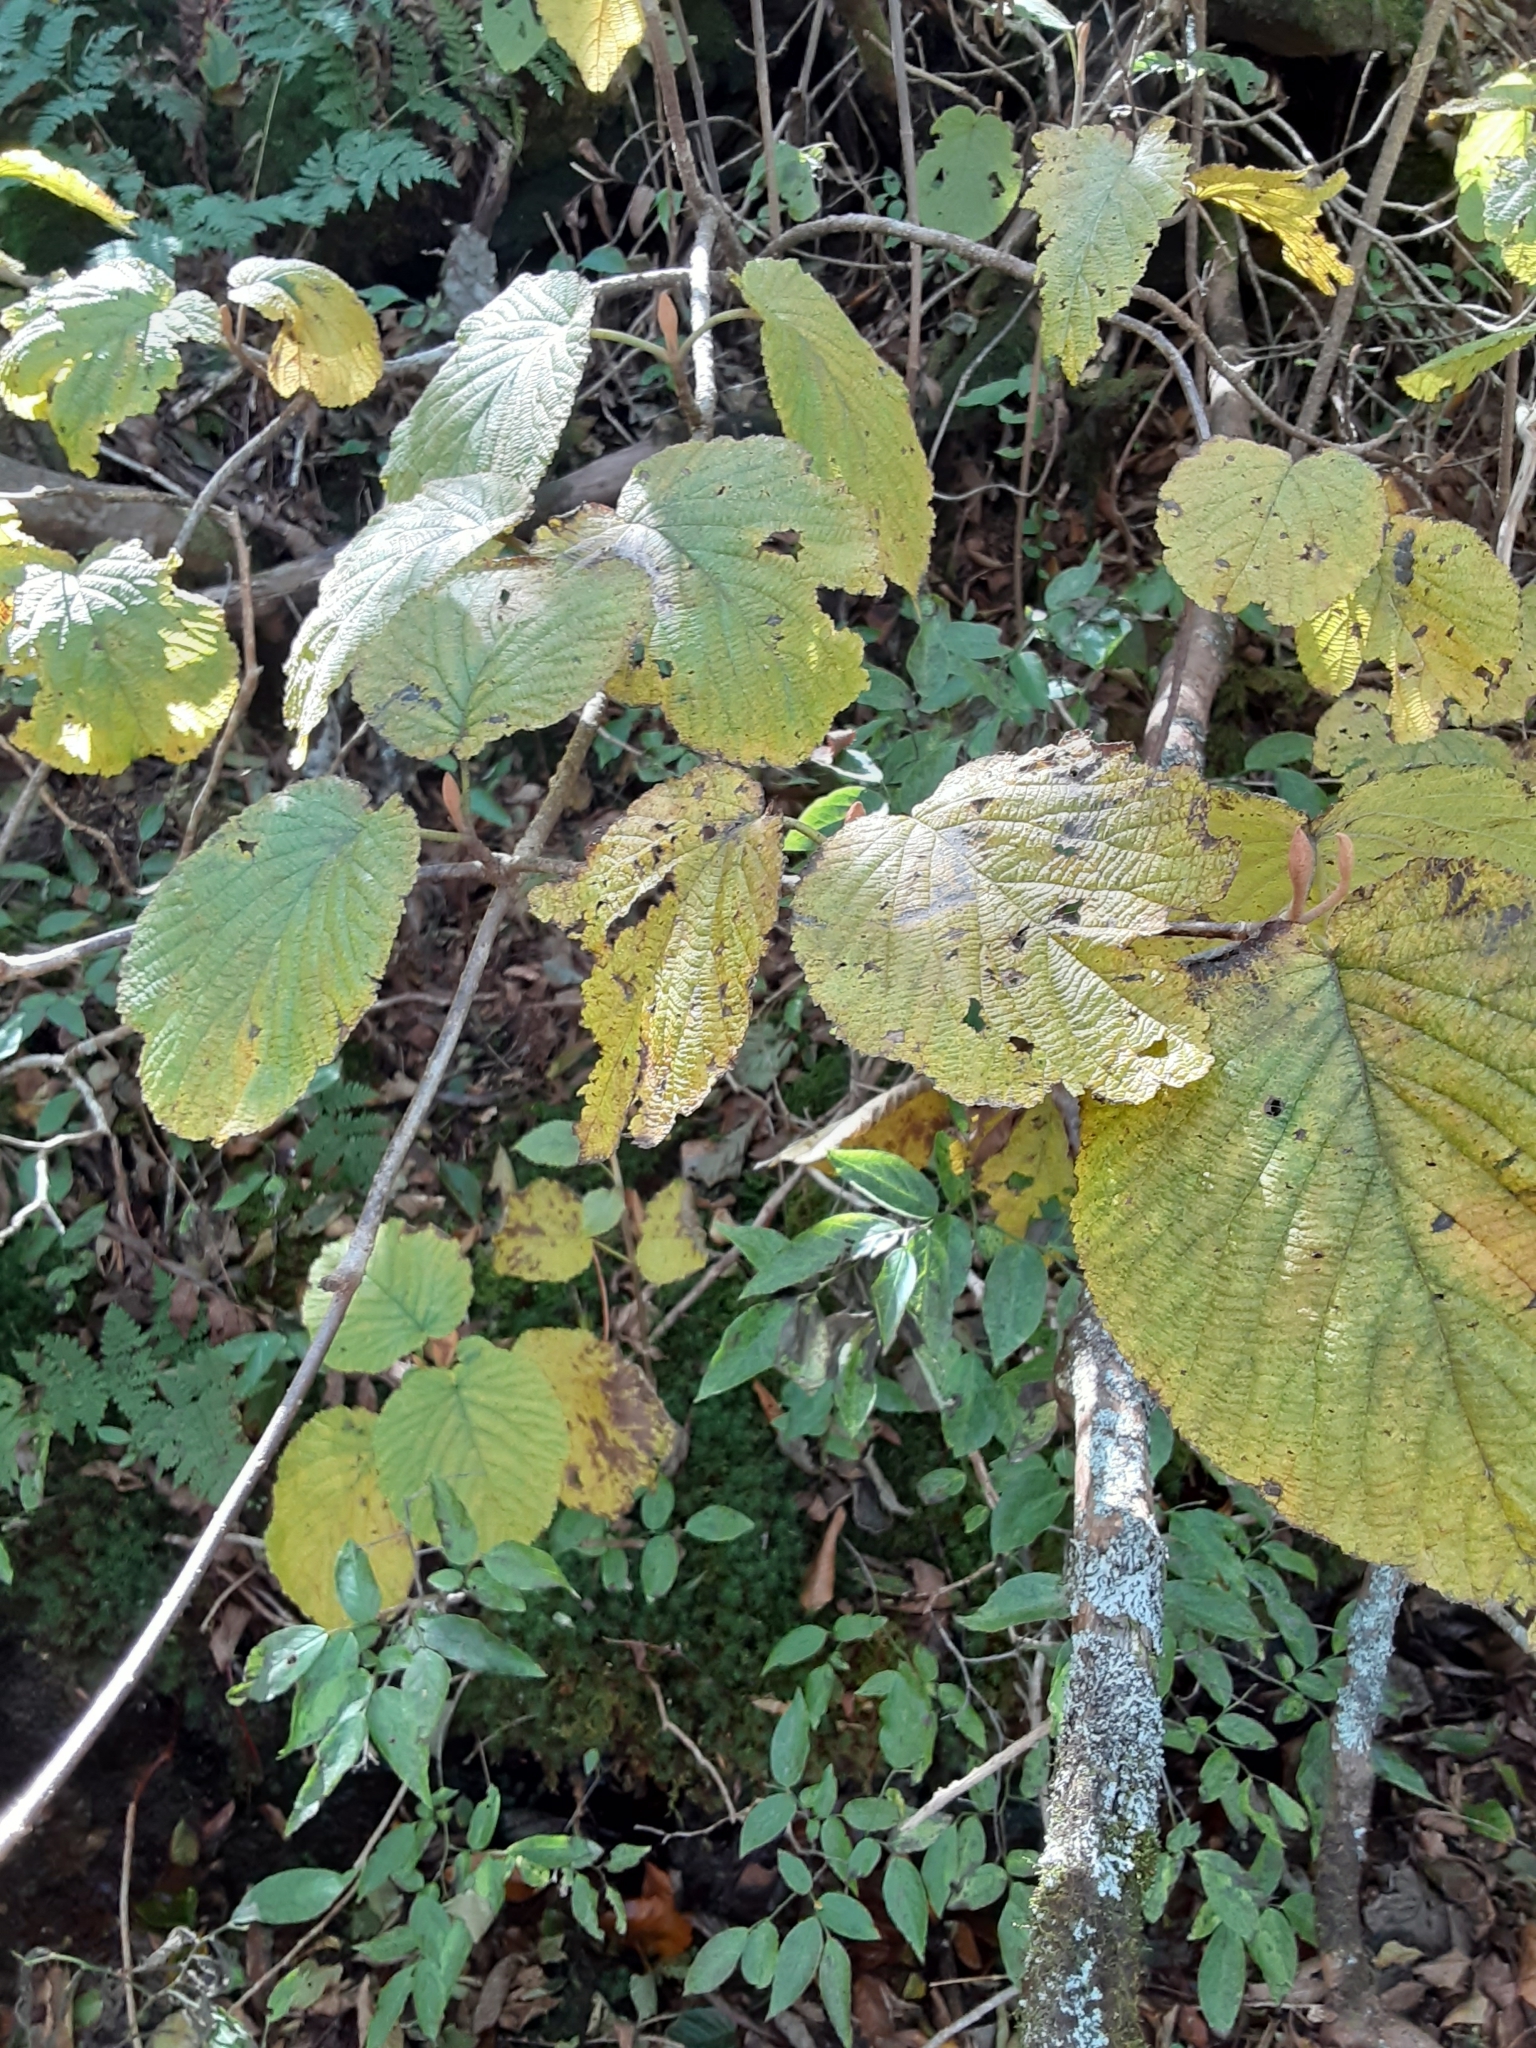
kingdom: Plantae
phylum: Tracheophyta
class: Magnoliopsida
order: Dipsacales
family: Viburnaceae
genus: Viburnum
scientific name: Viburnum lantanoides
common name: Hobblebush
